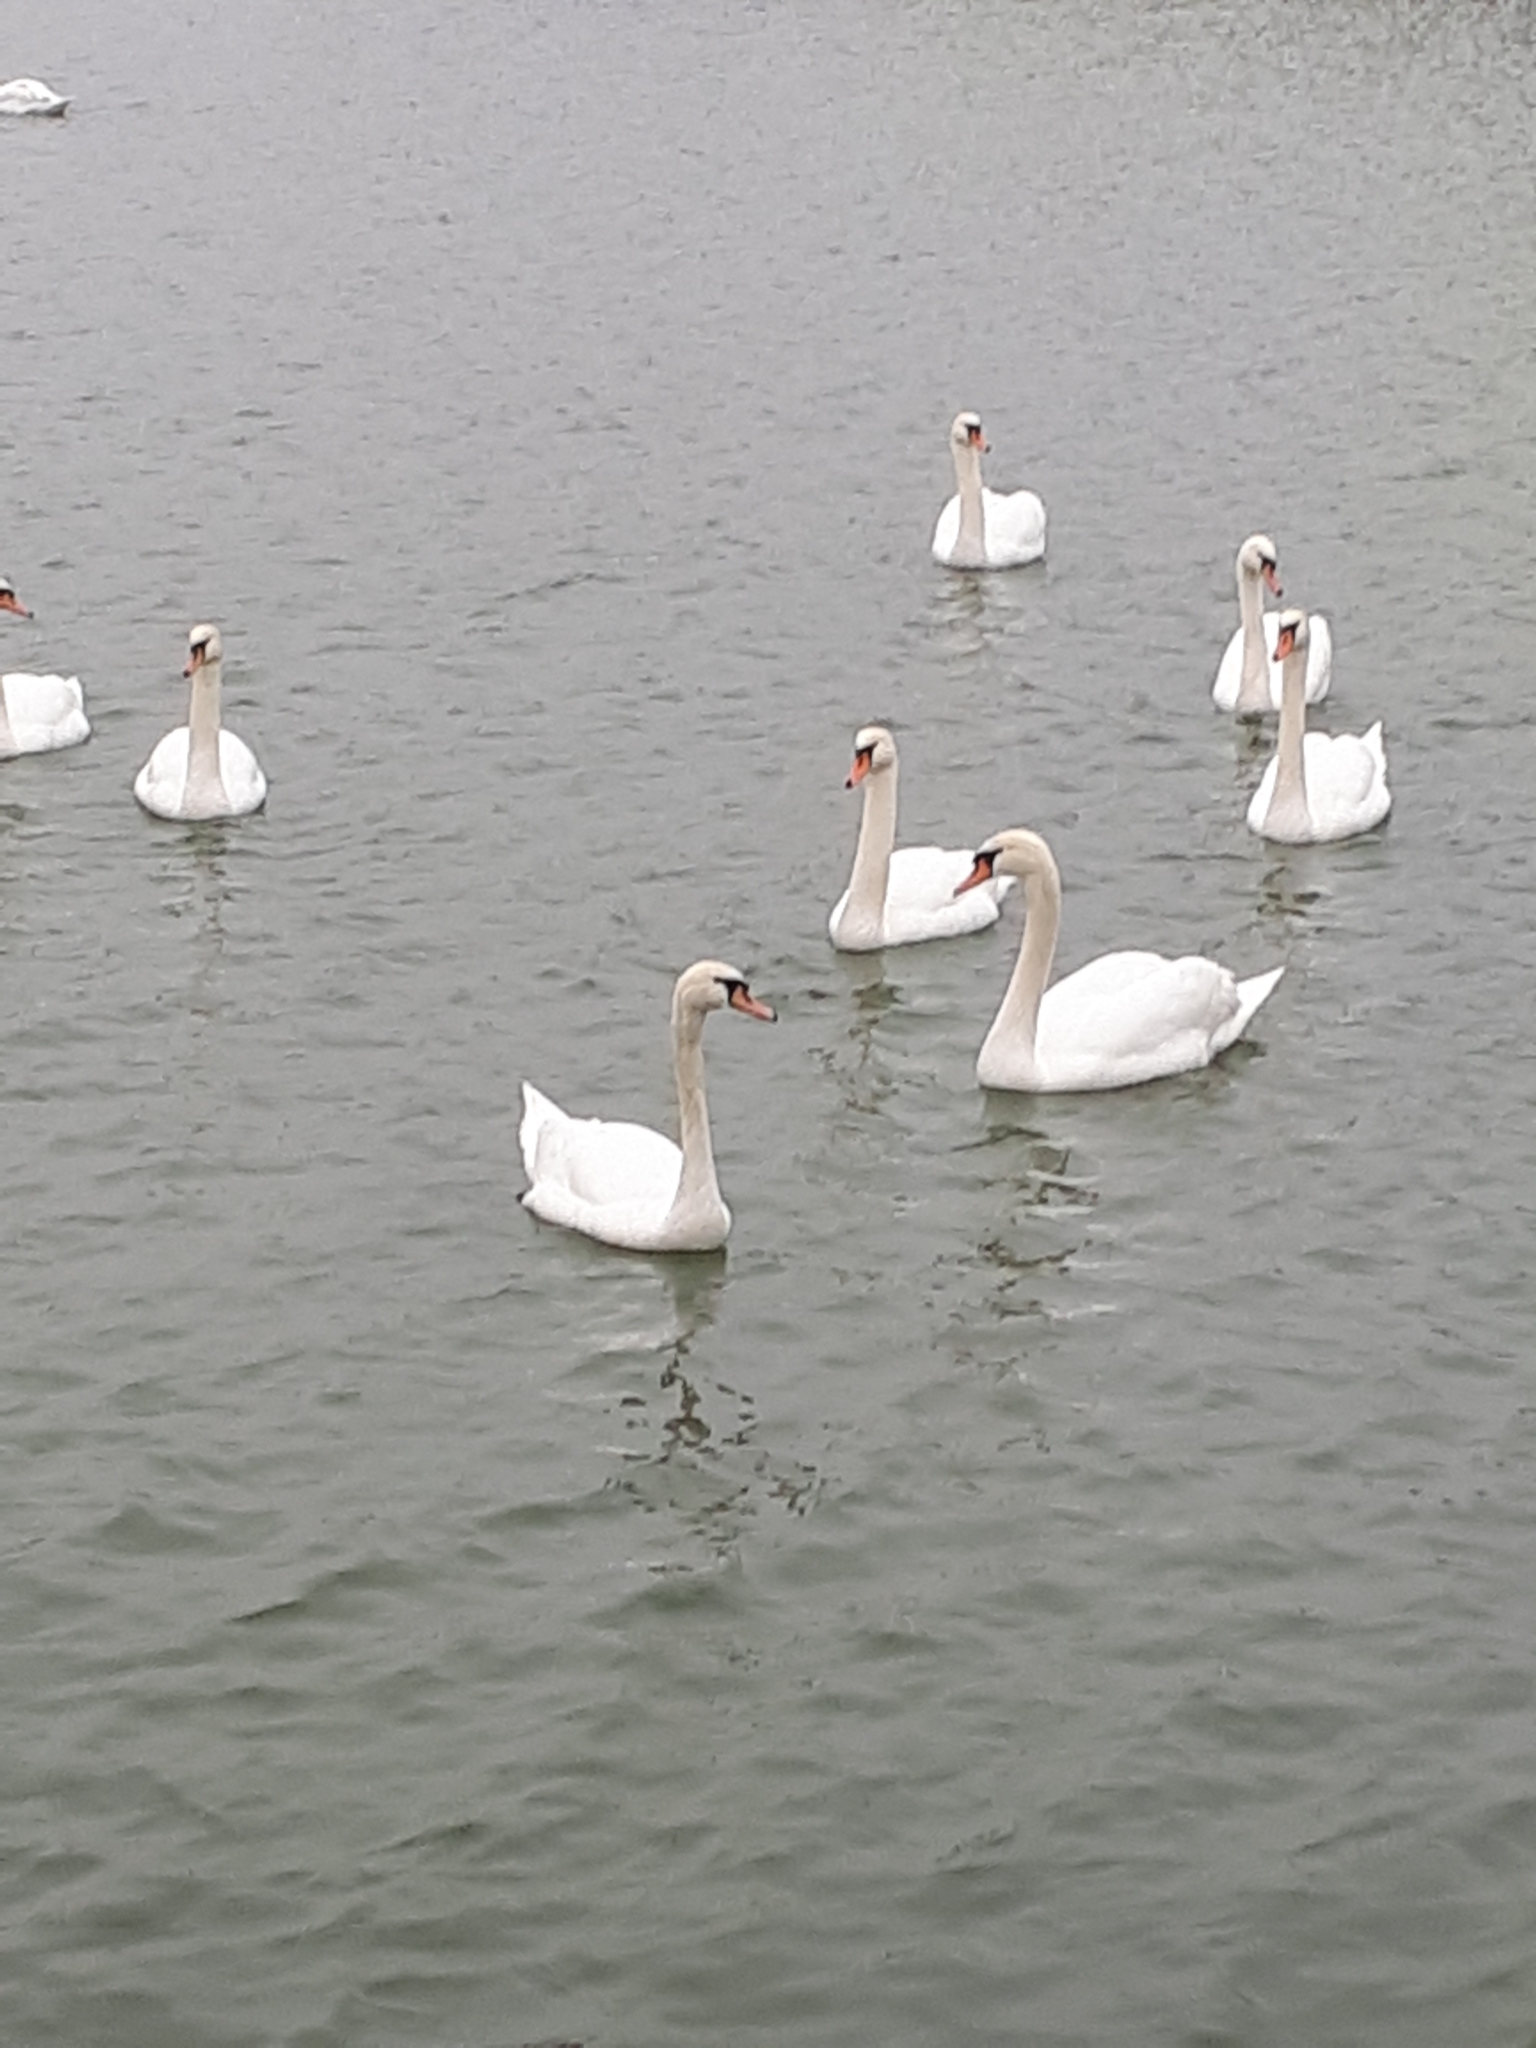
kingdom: Animalia
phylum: Chordata
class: Aves
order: Anseriformes
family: Anatidae
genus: Cygnus
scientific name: Cygnus olor
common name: Mute swan
